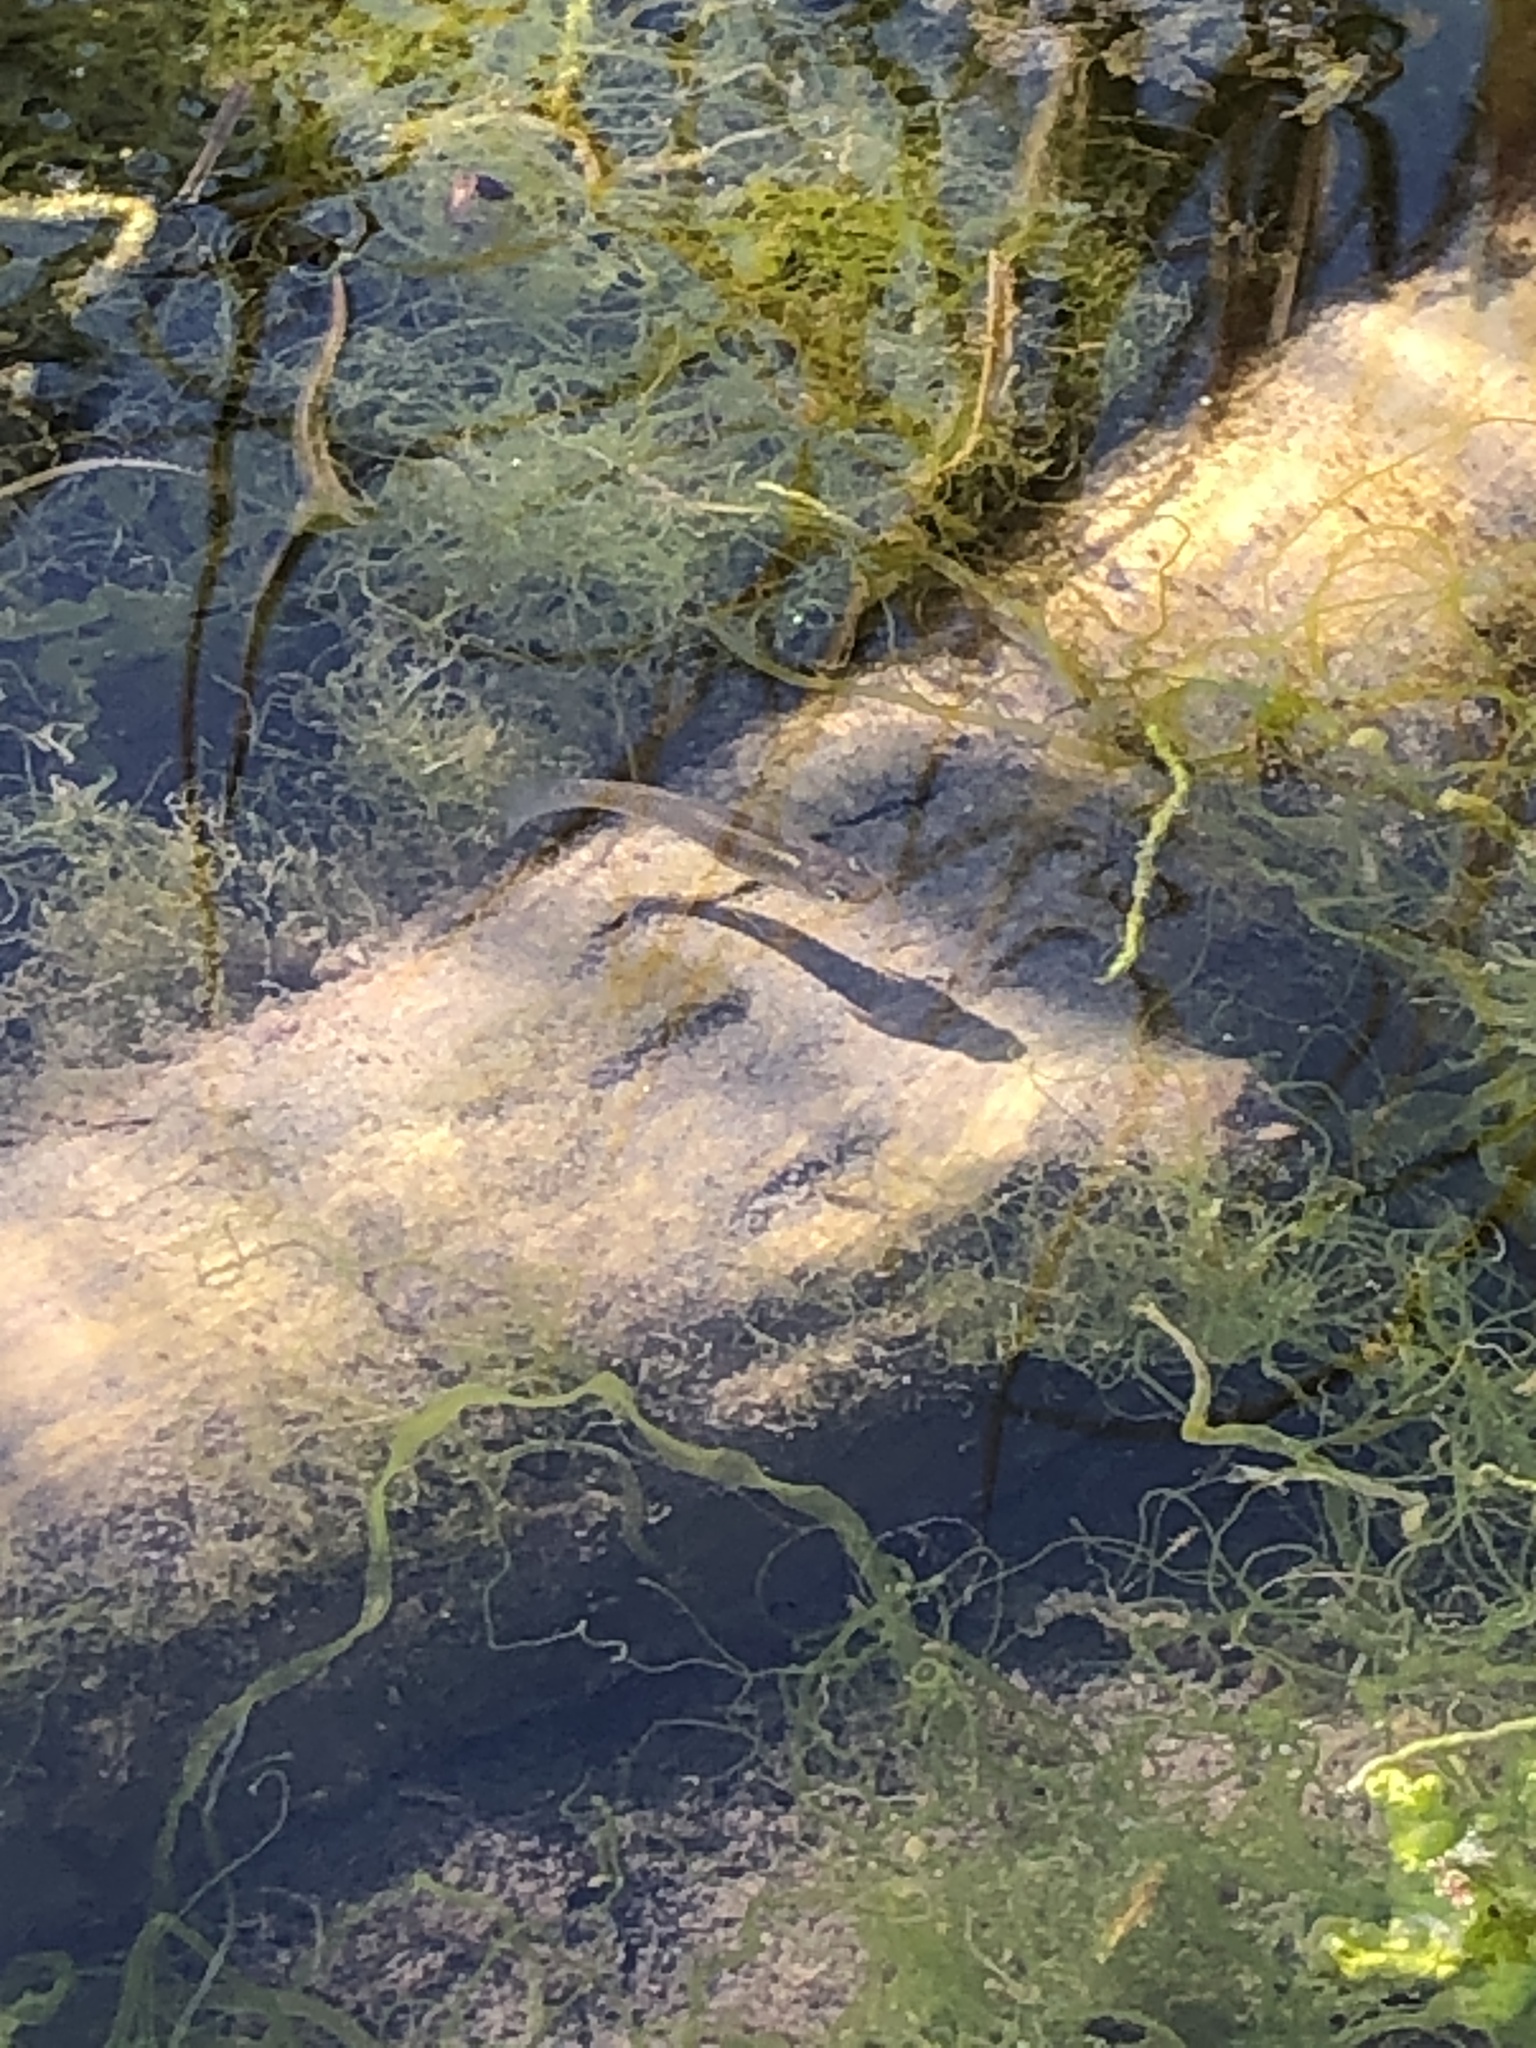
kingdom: Animalia
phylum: Chordata
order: Cyprinodontiformes
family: Poeciliidae
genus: Gambusia
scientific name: Gambusia affinis
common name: Mosquitofish
